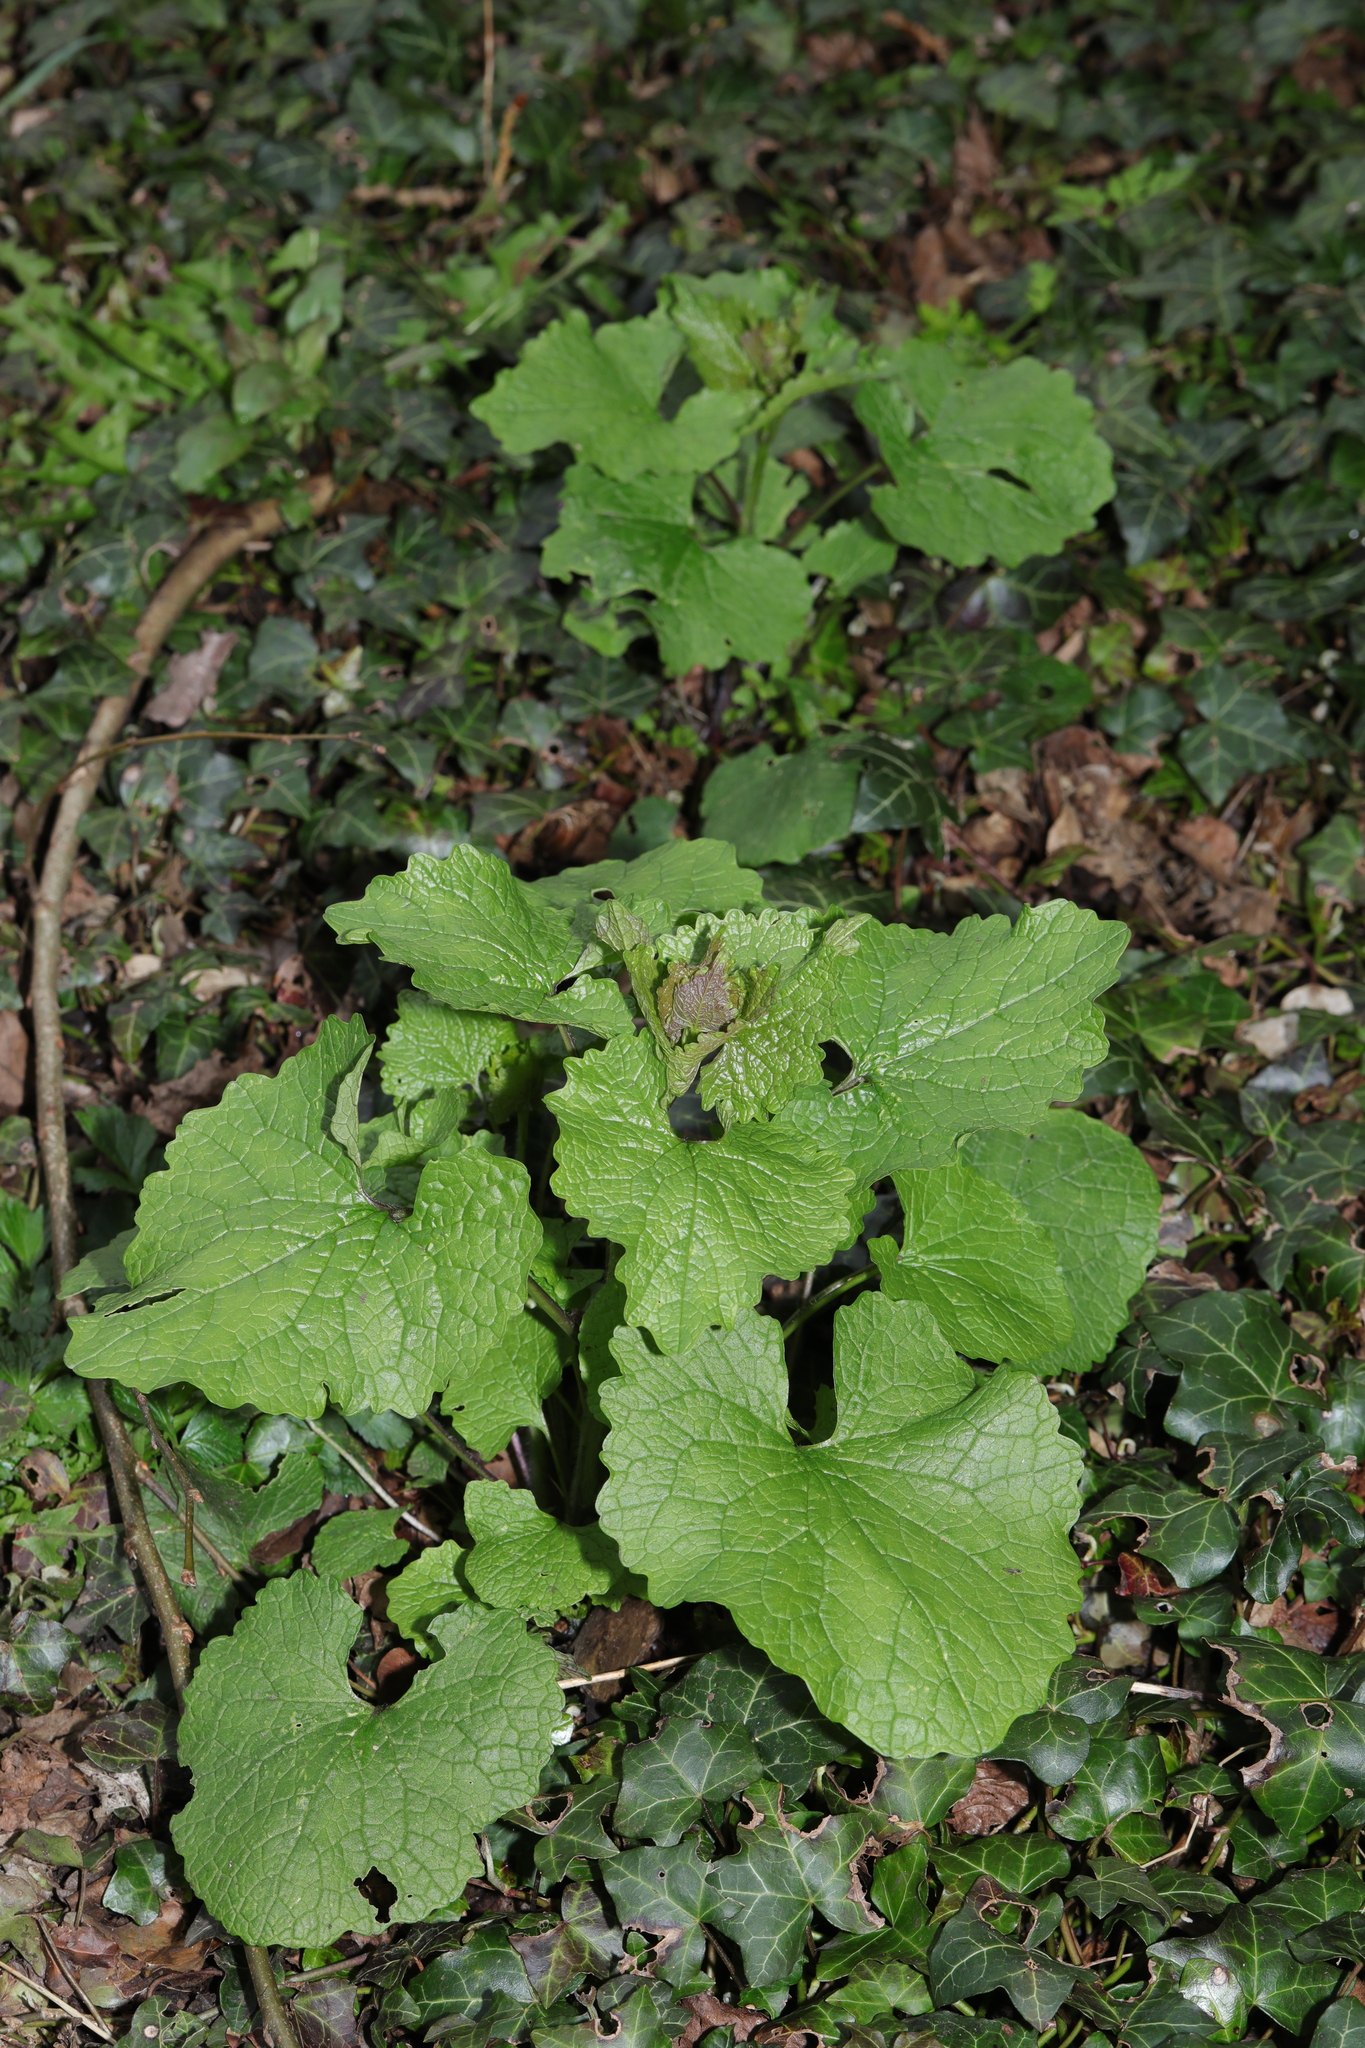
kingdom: Plantae
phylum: Tracheophyta
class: Magnoliopsida
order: Brassicales
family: Brassicaceae
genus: Alliaria
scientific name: Alliaria petiolata
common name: Garlic mustard
